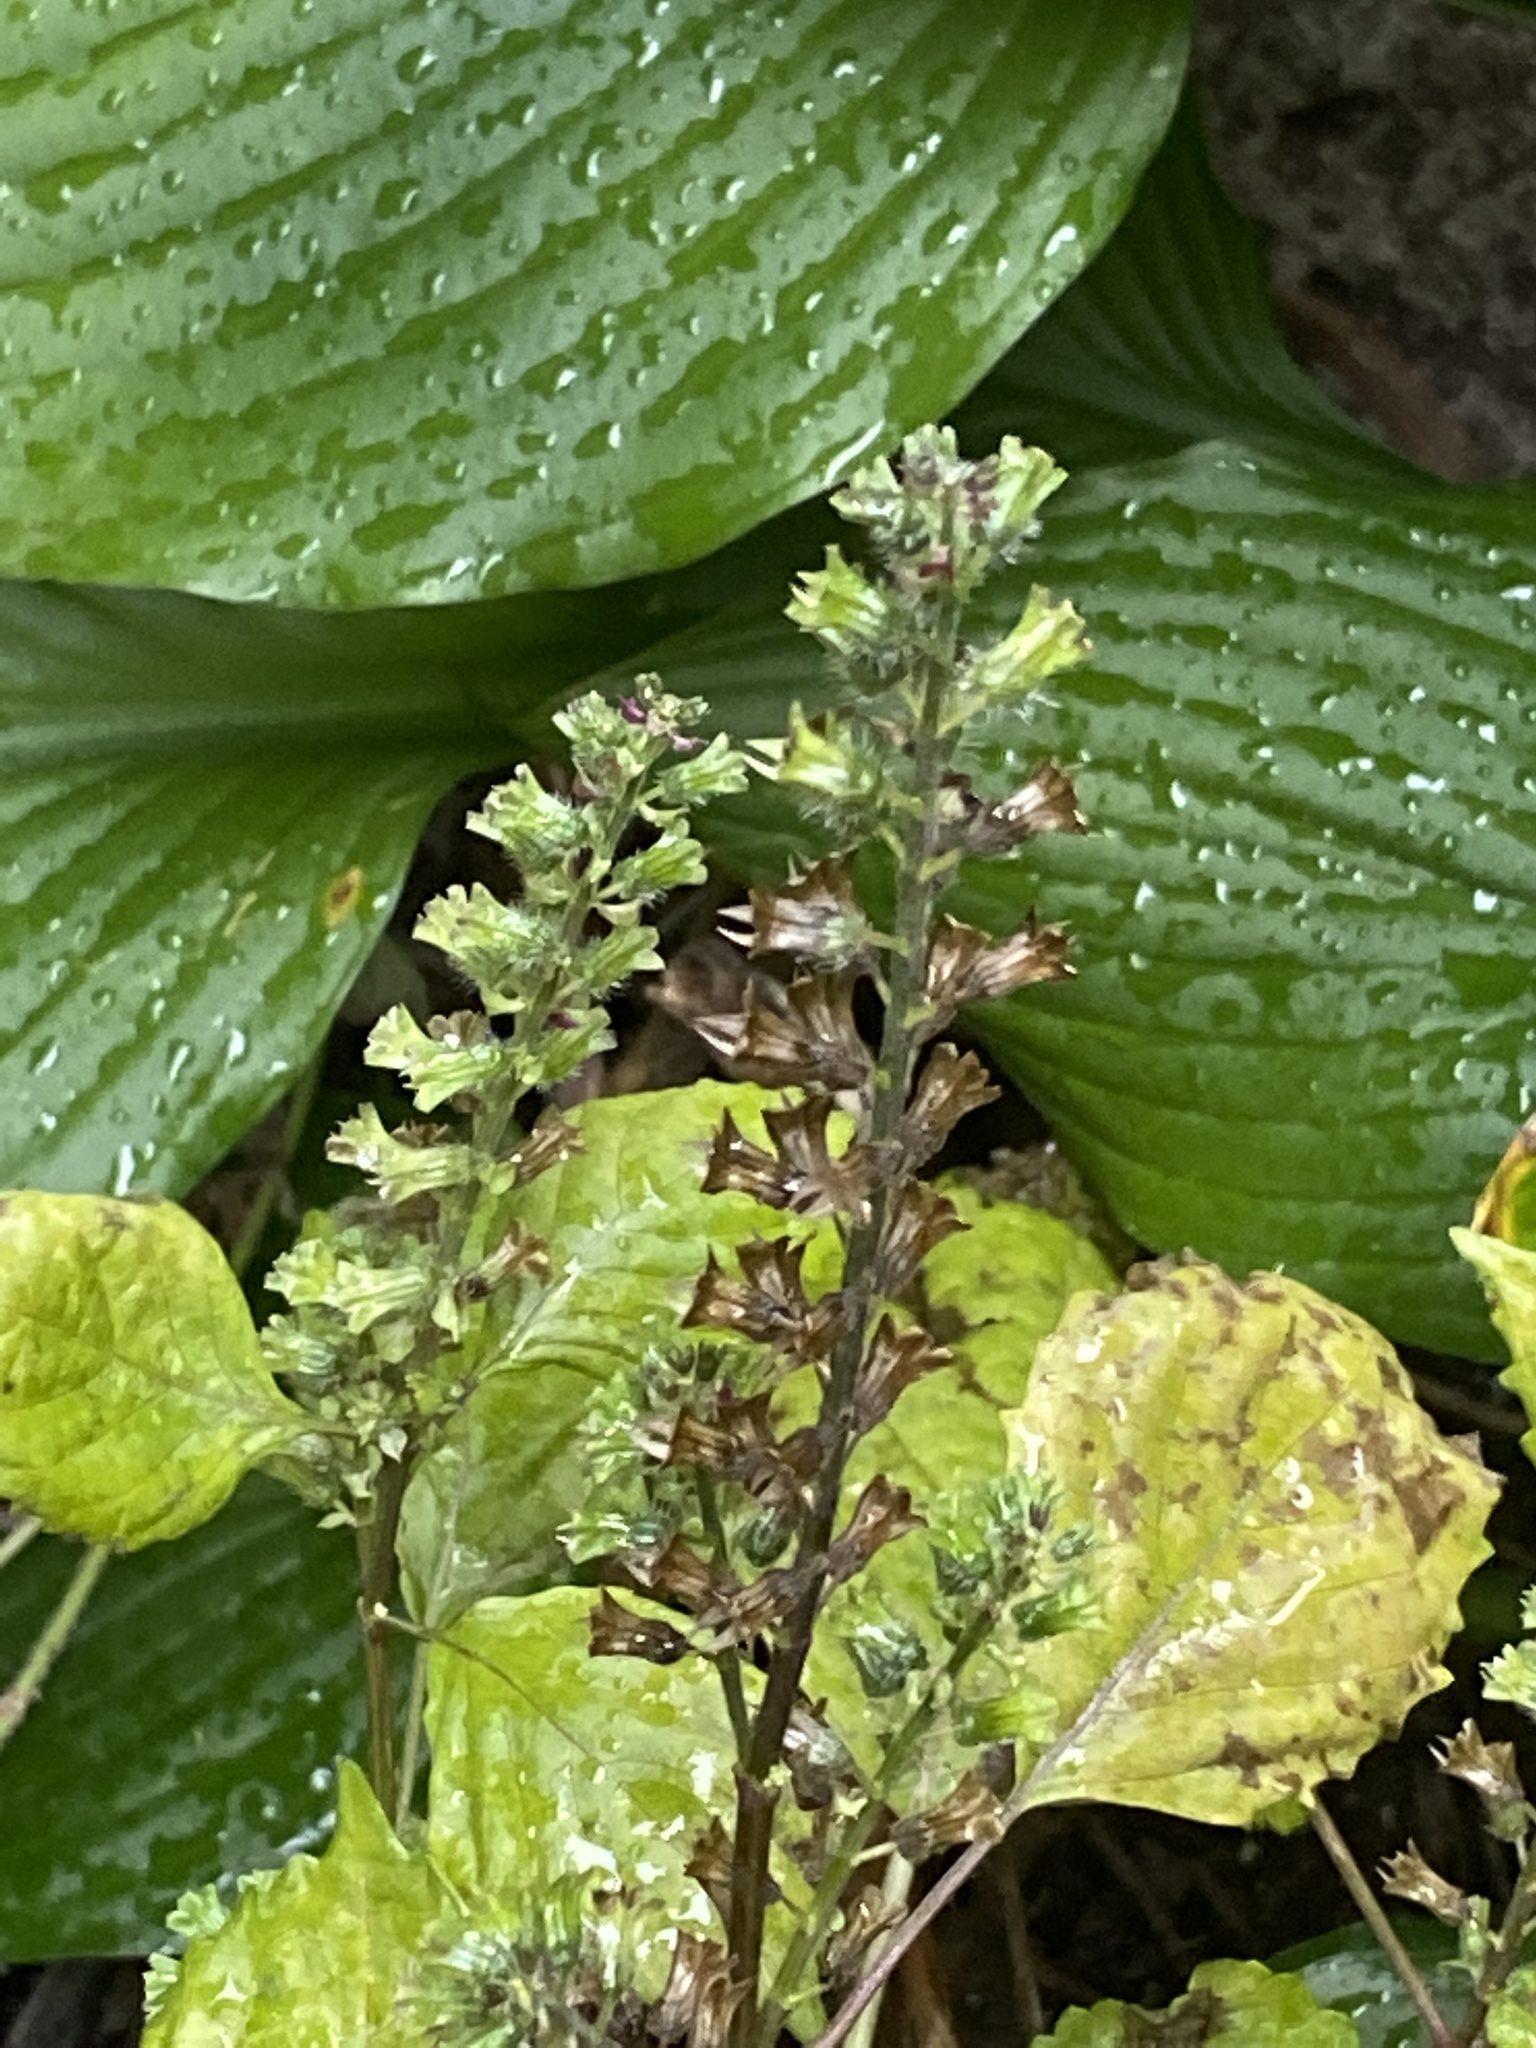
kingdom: Plantae
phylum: Tracheophyta
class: Magnoliopsida
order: Lamiales
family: Lamiaceae
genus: Perilla
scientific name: Perilla frutescens
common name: Perilla
